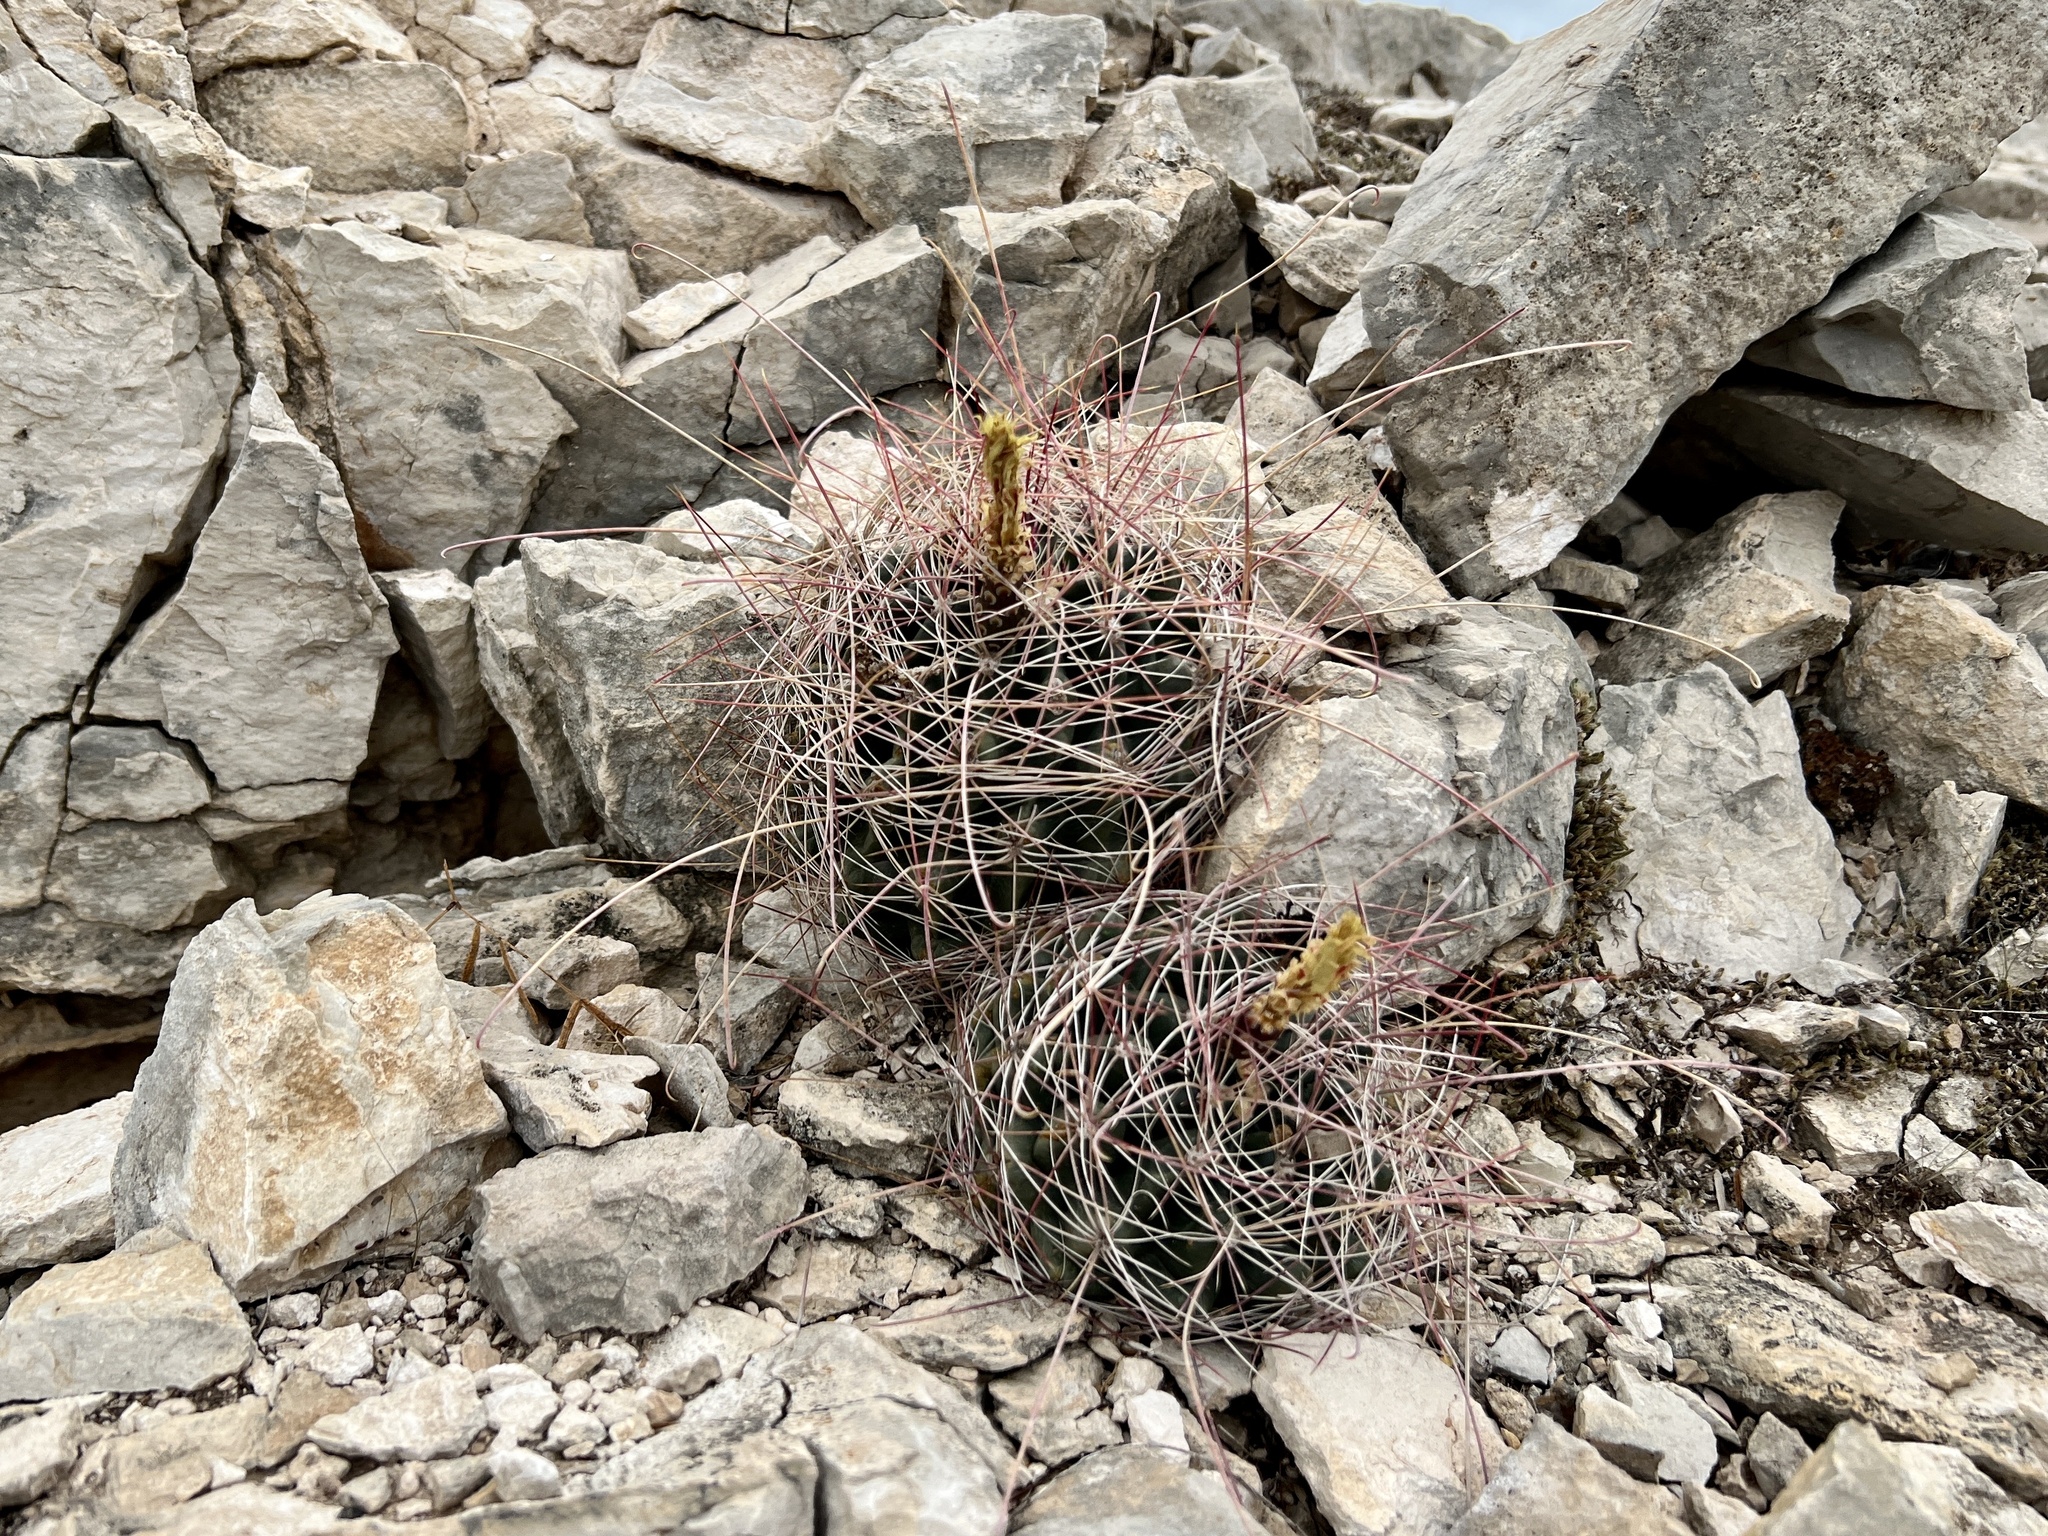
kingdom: Plantae
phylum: Tracheophyta
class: Magnoliopsida
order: Caryophyllales
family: Cactaceae
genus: Bisnaga
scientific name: Bisnaga hamatacantha
